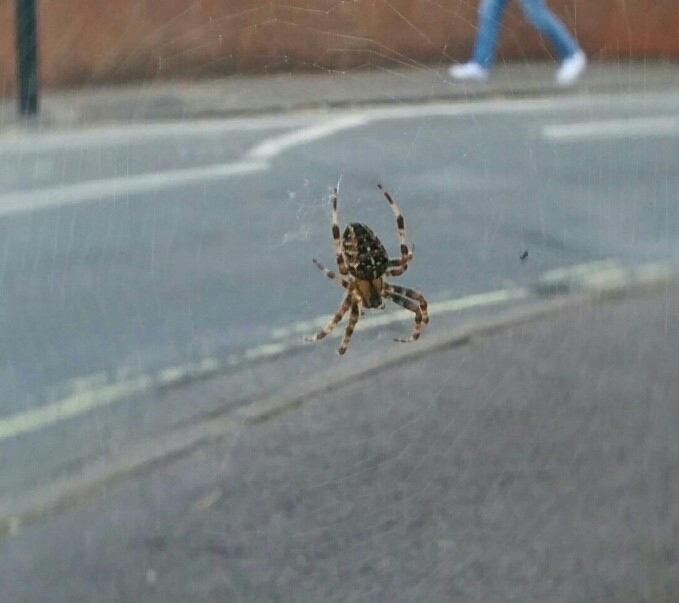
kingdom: Animalia
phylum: Arthropoda
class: Arachnida
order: Araneae
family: Araneidae
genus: Araneus
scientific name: Araneus diadematus
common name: Cross orbweaver
